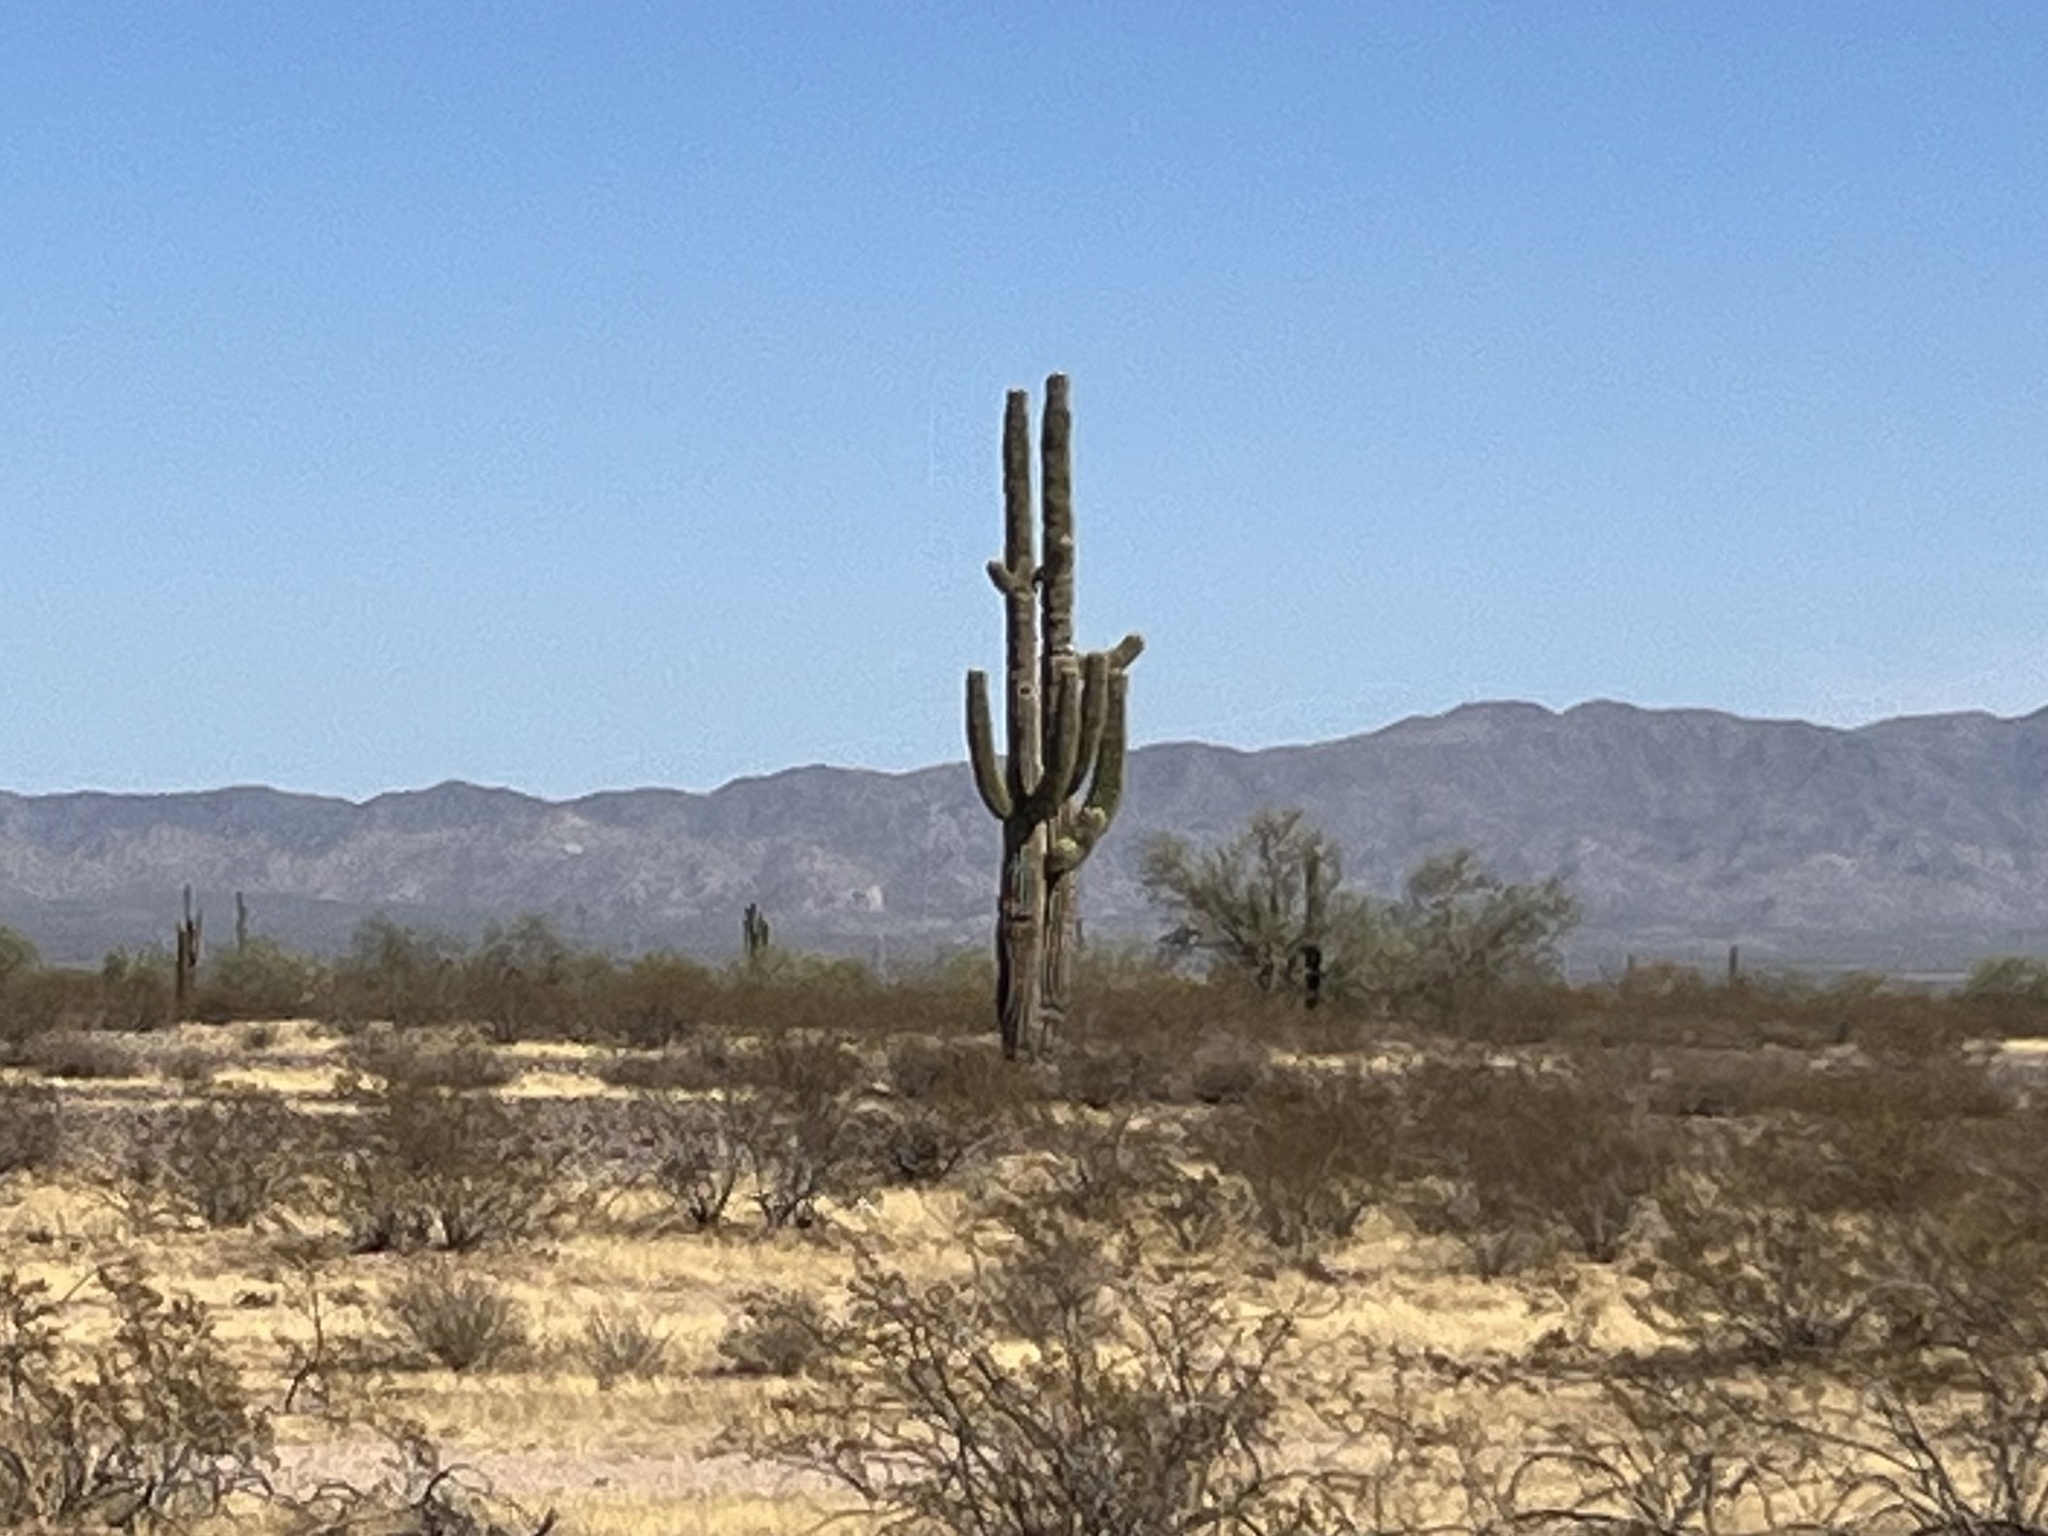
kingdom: Plantae
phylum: Tracheophyta
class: Magnoliopsida
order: Caryophyllales
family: Cactaceae
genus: Carnegiea
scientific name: Carnegiea gigantea
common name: Saguaro
